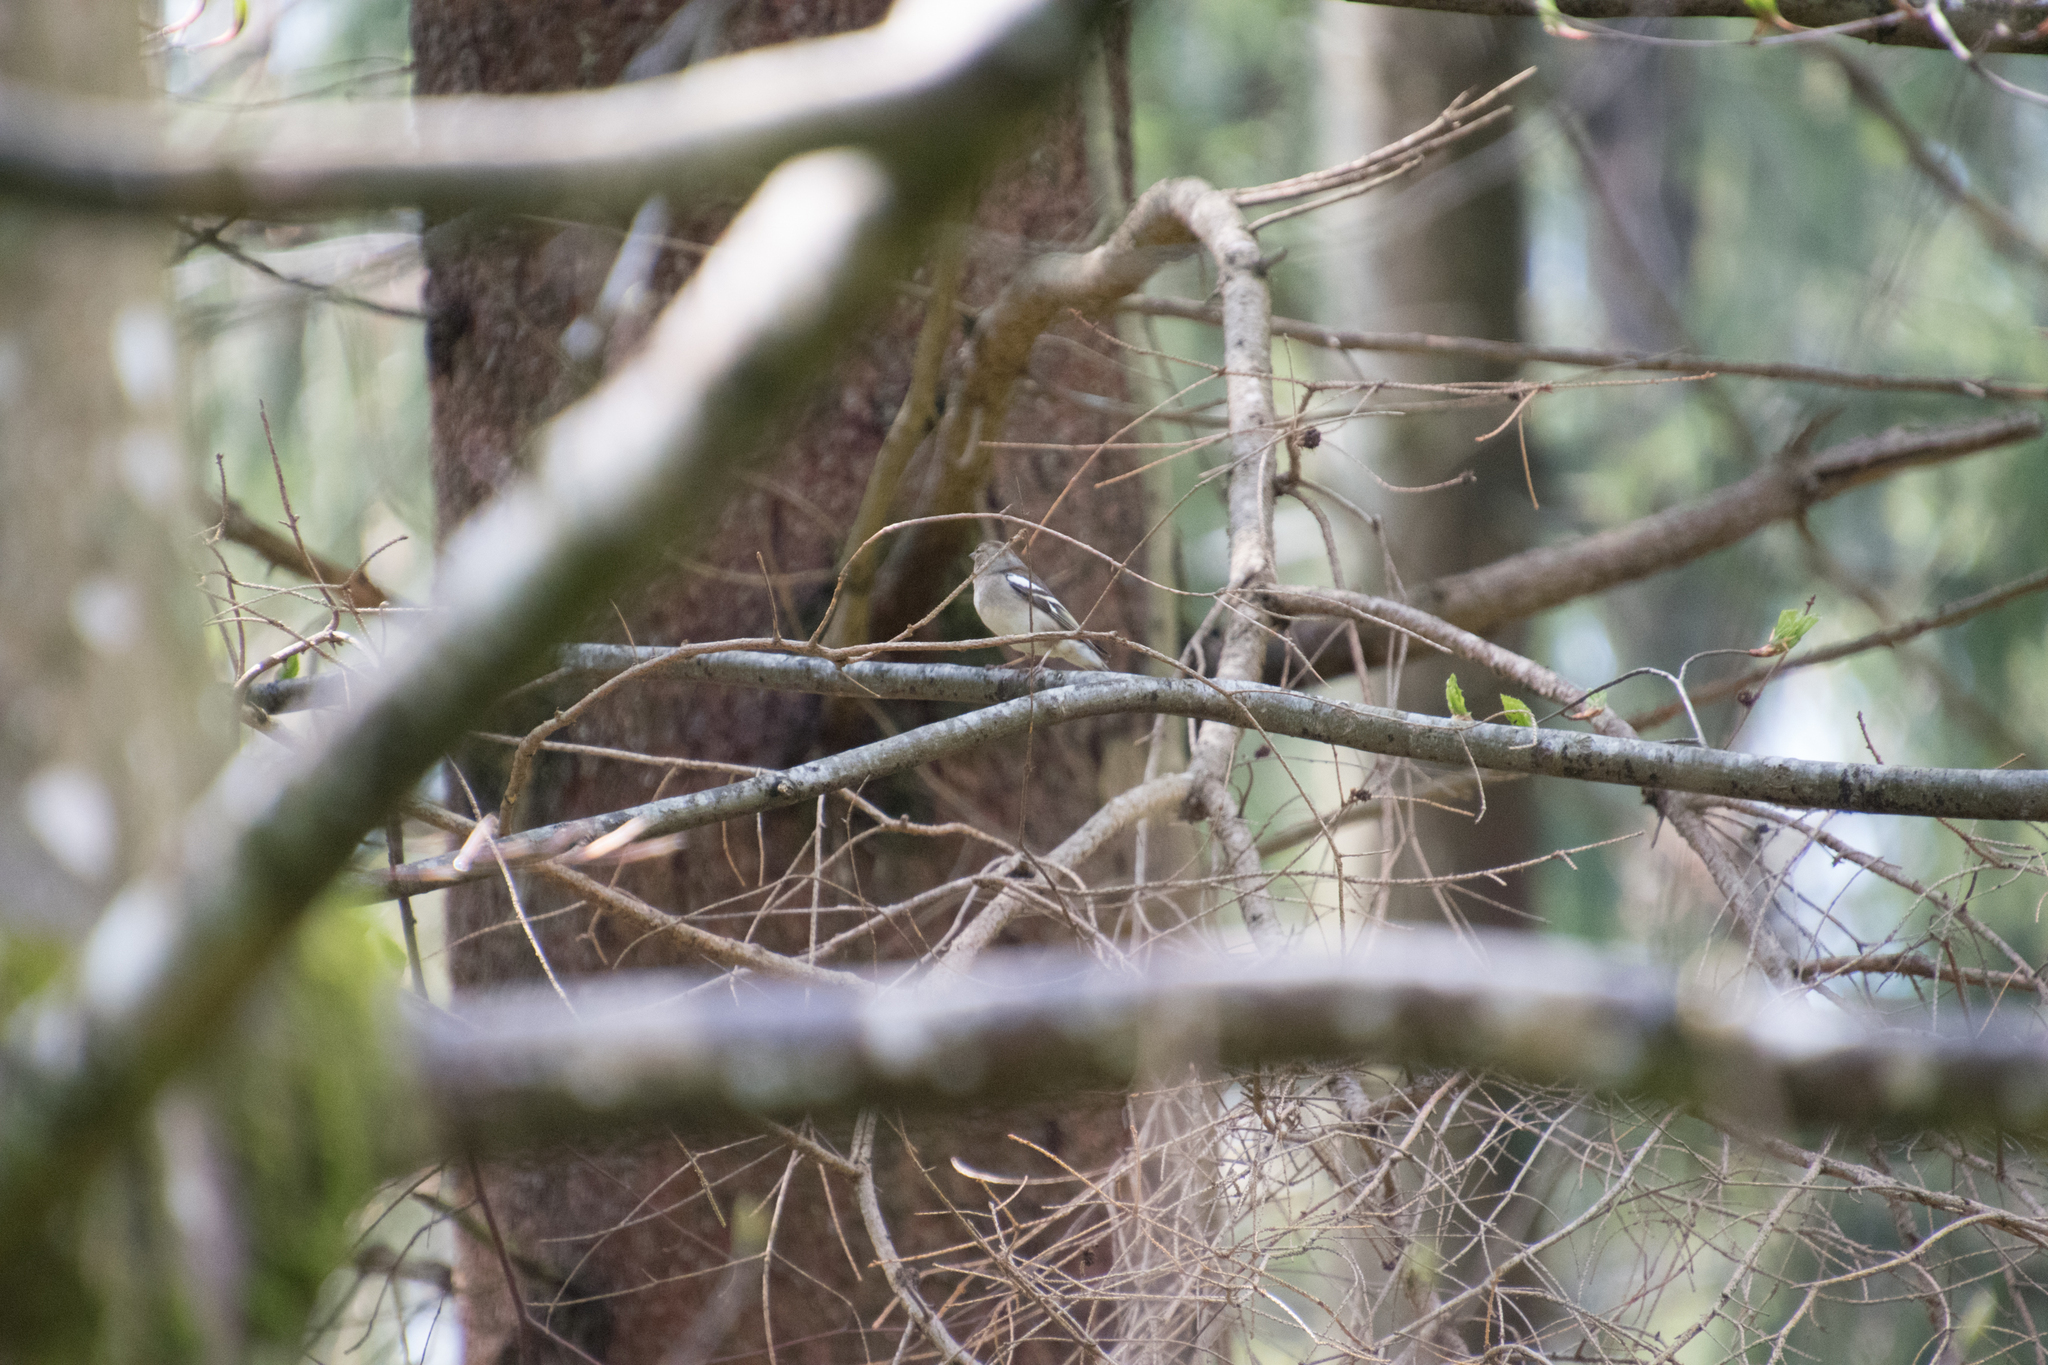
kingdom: Animalia
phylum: Chordata
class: Aves
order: Passeriformes
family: Fringillidae
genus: Fringilla
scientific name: Fringilla coelebs
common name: Common chaffinch
